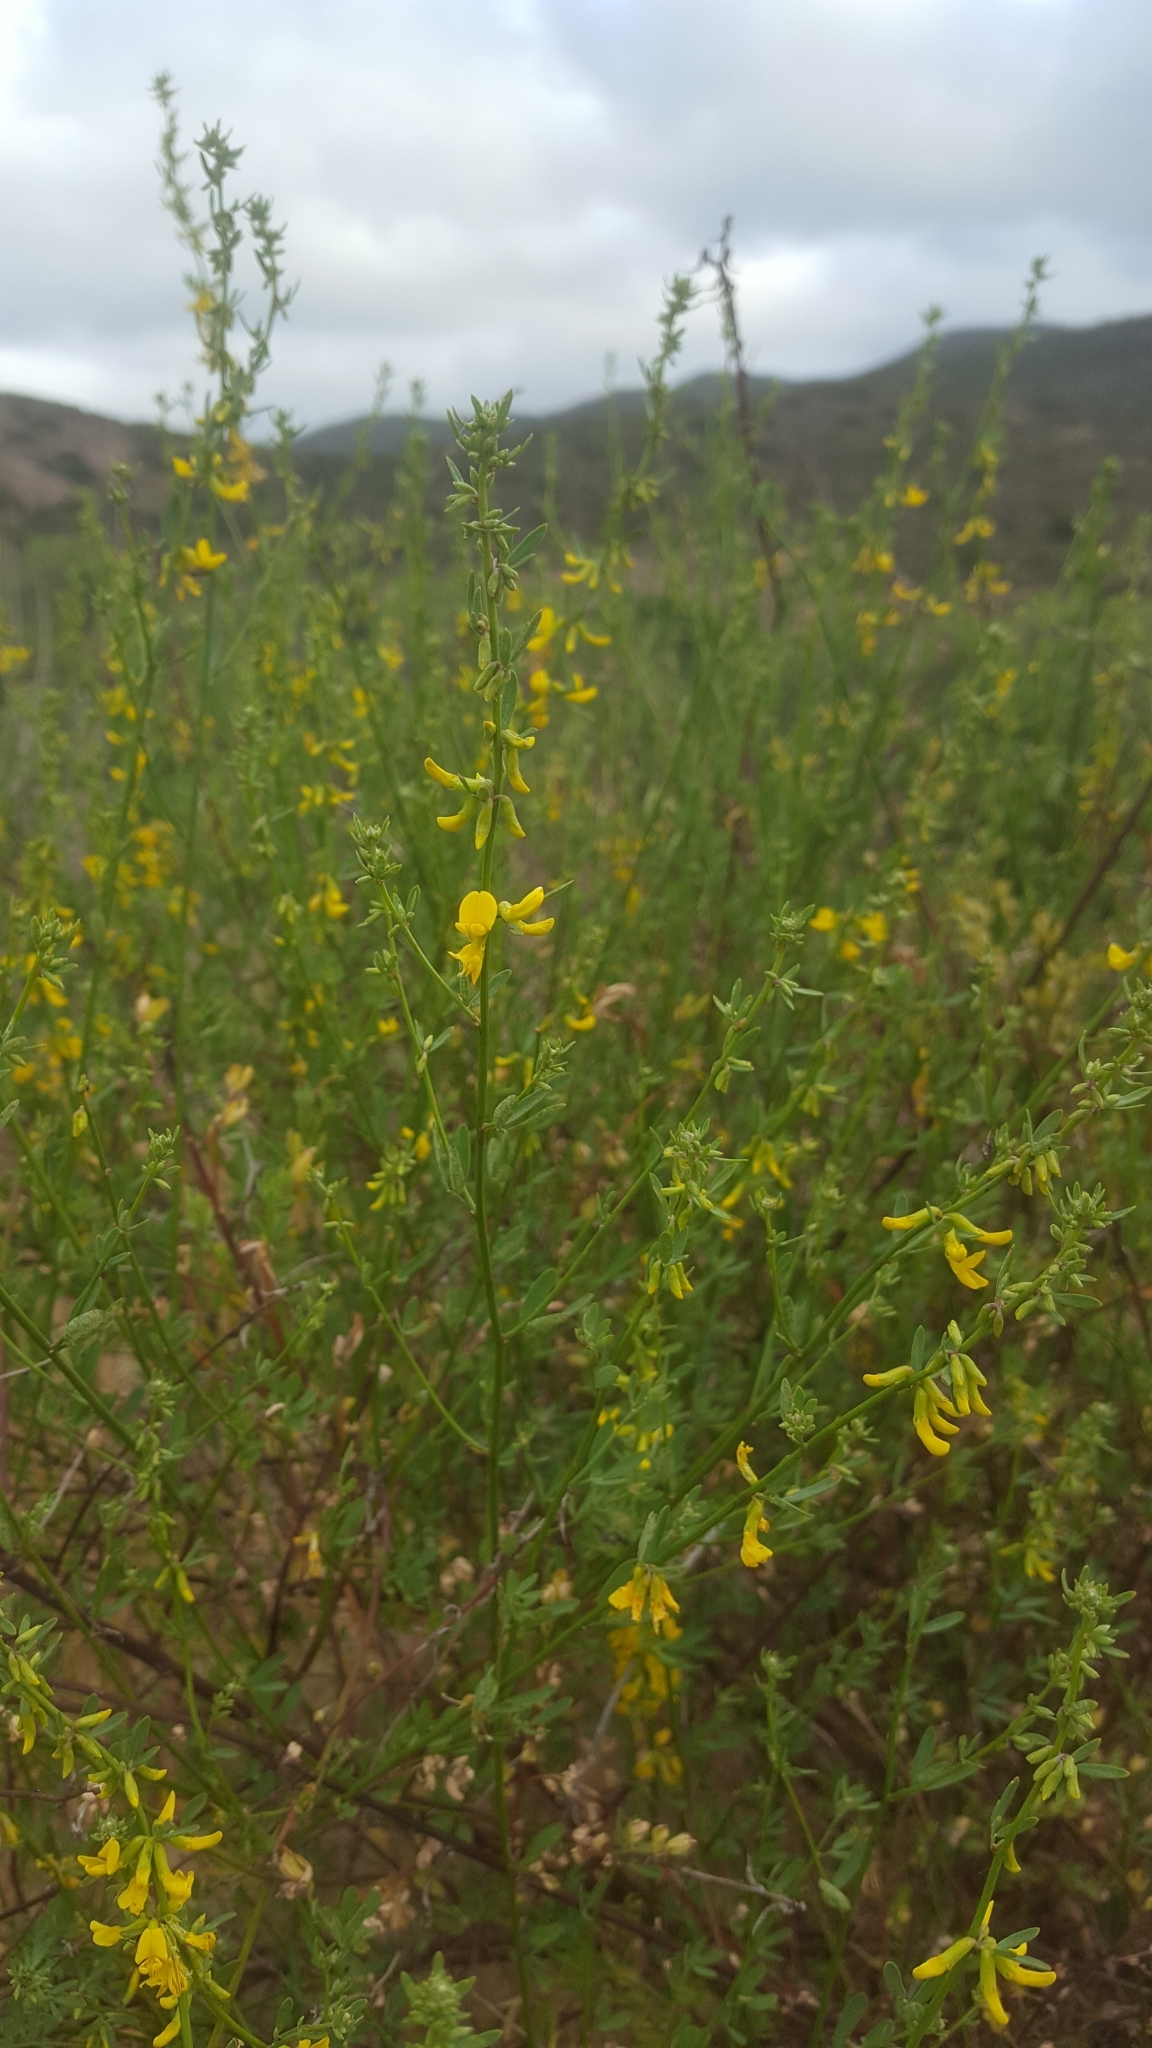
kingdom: Plantae
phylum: Tracheophyta
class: Magnoliopsida
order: Fabales
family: Fabaceae
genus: Acmispon
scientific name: Acmispon glaber
